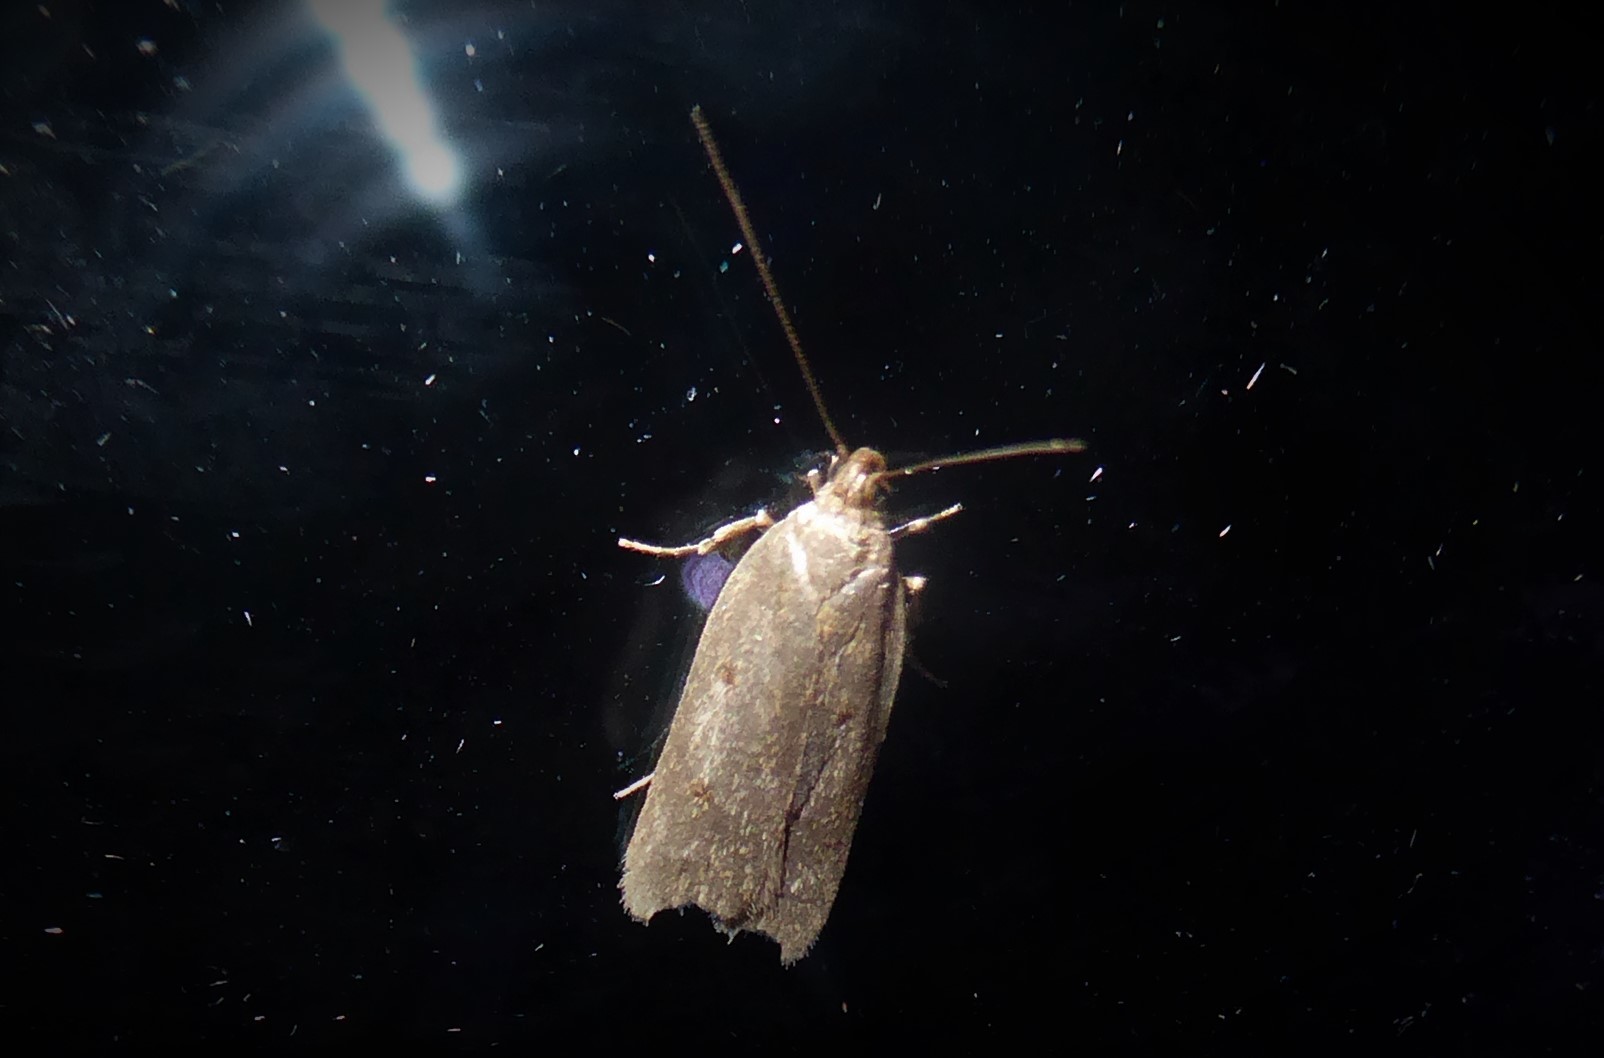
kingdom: Animalia
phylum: Arthropoda
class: Insecta
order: Lepidoptera
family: Depressariidae
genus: Phaeosaces
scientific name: Phaeosaces apocrypta
